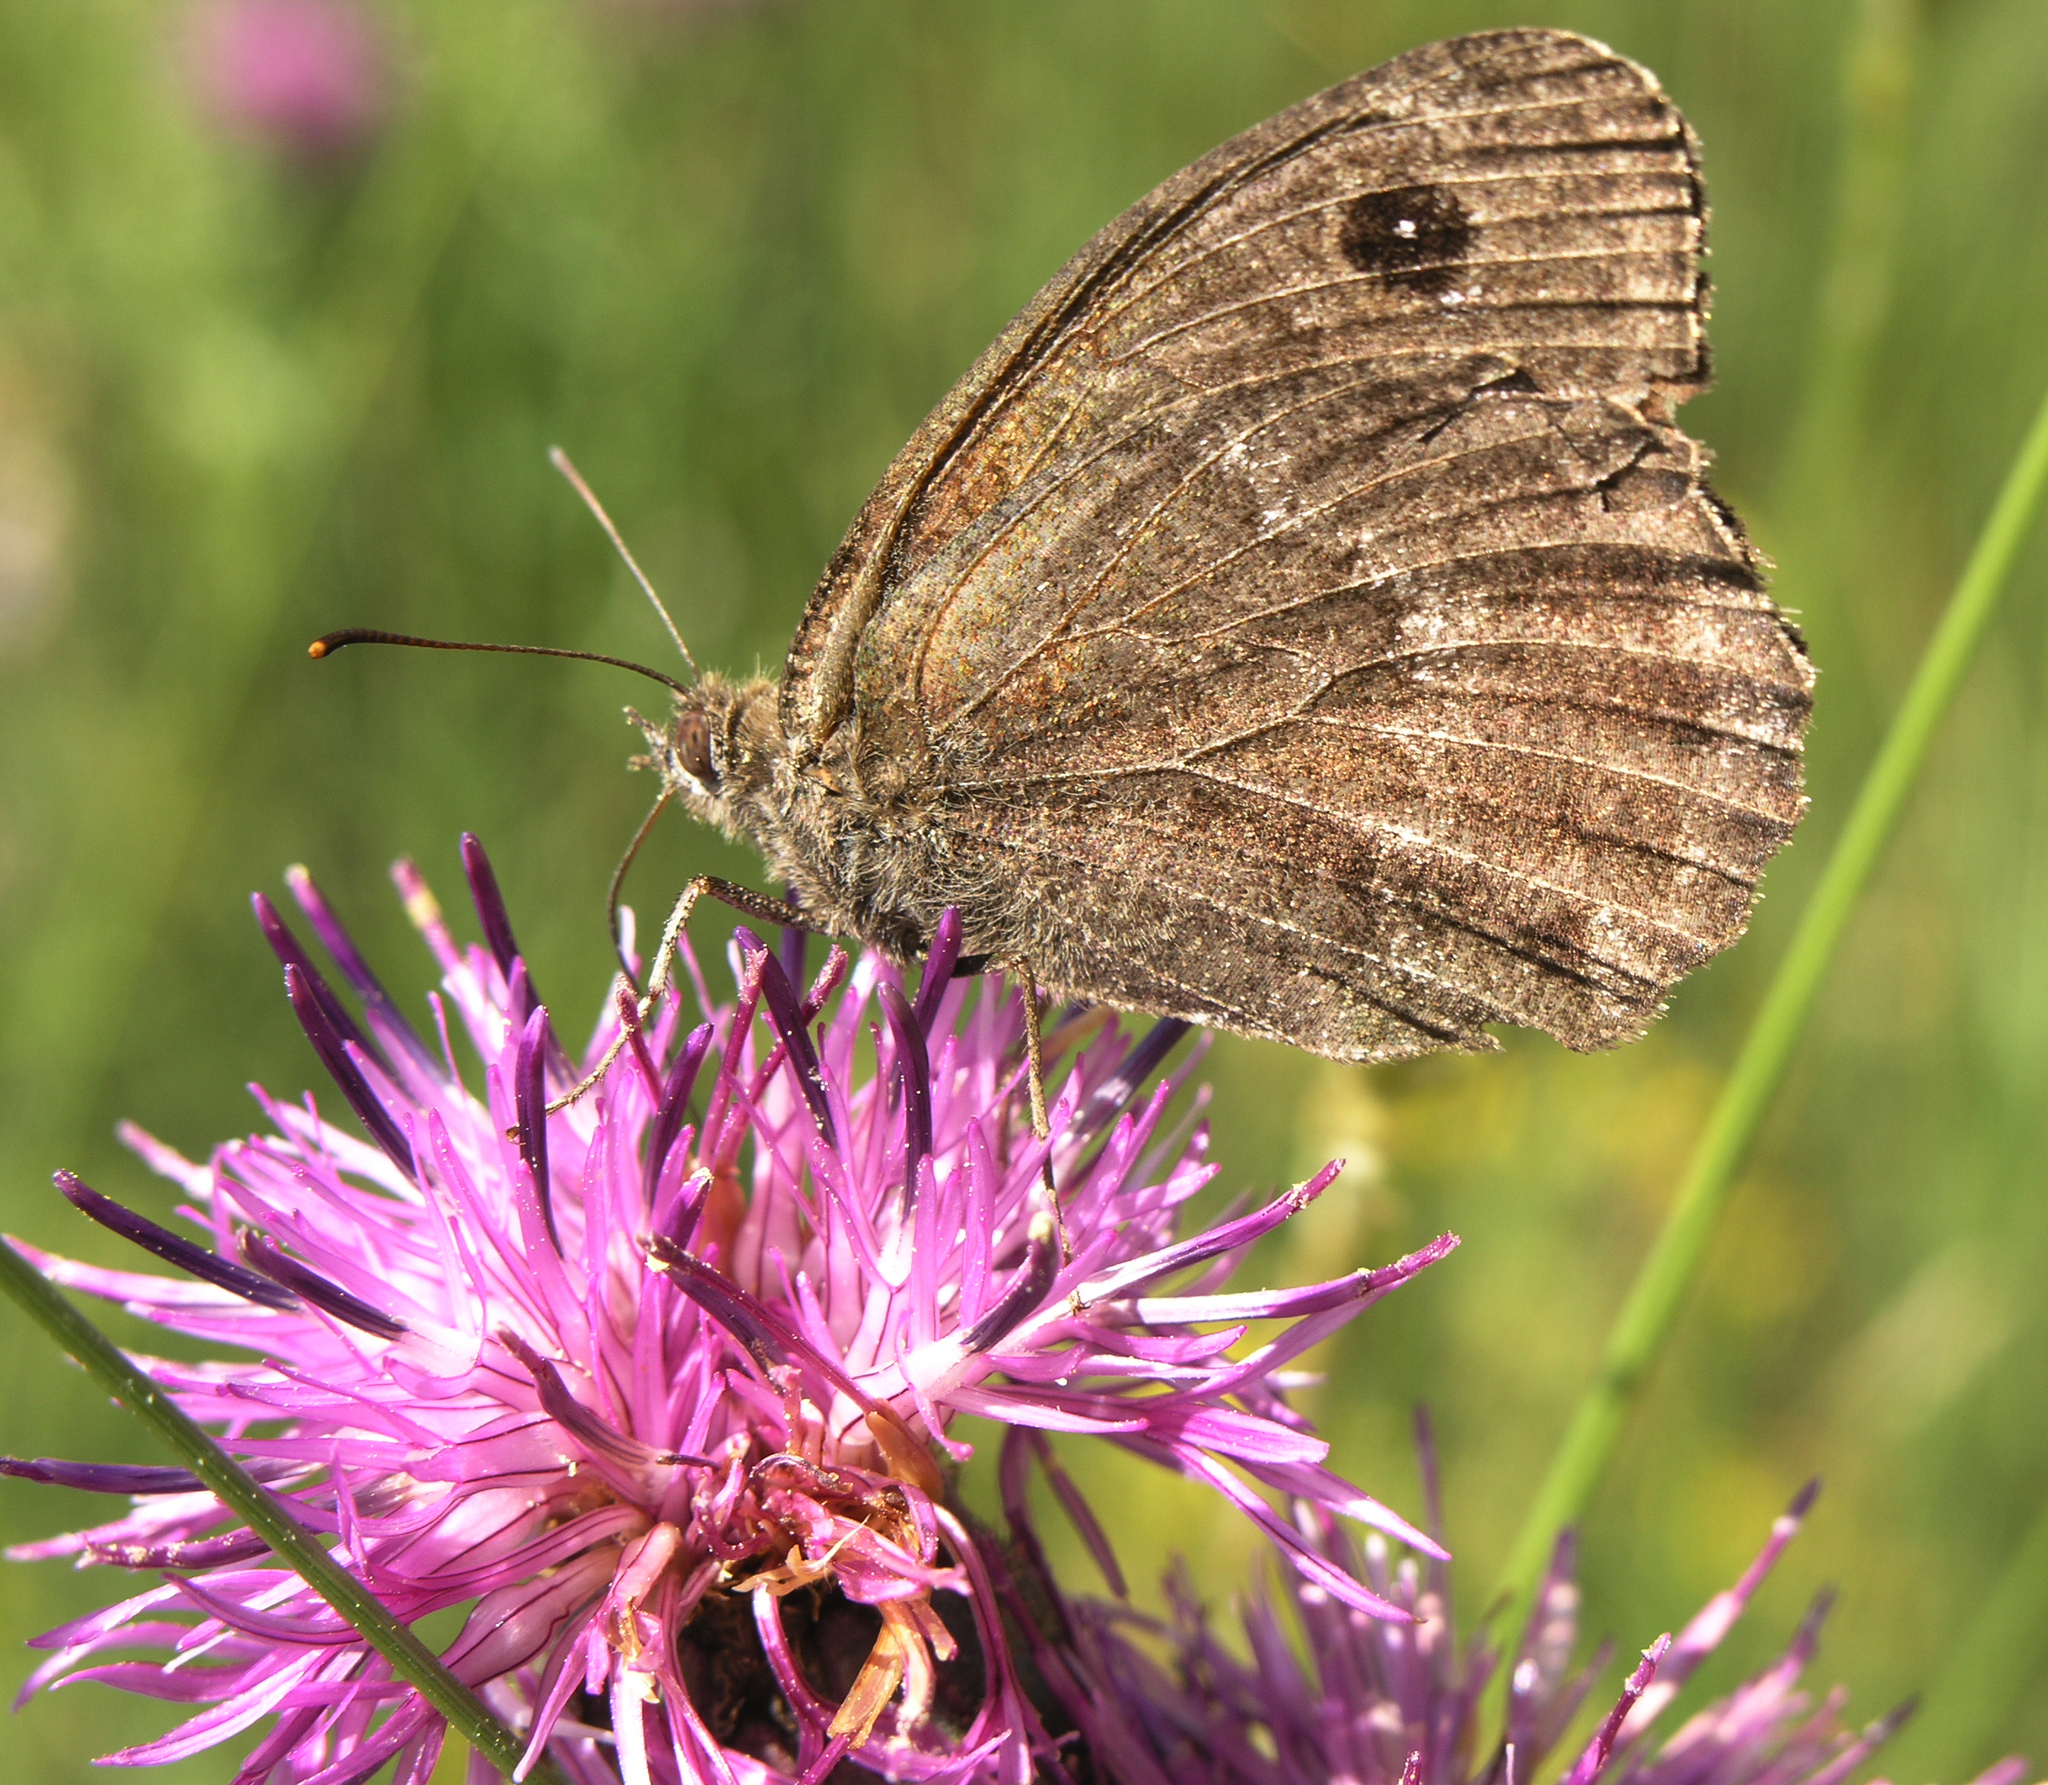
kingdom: Animalia
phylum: Arthropoda
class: Insecta
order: Lepidoptera
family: Nymphalidae
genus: Satyrus
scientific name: Satyrus ferula
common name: Great sooty satyr
